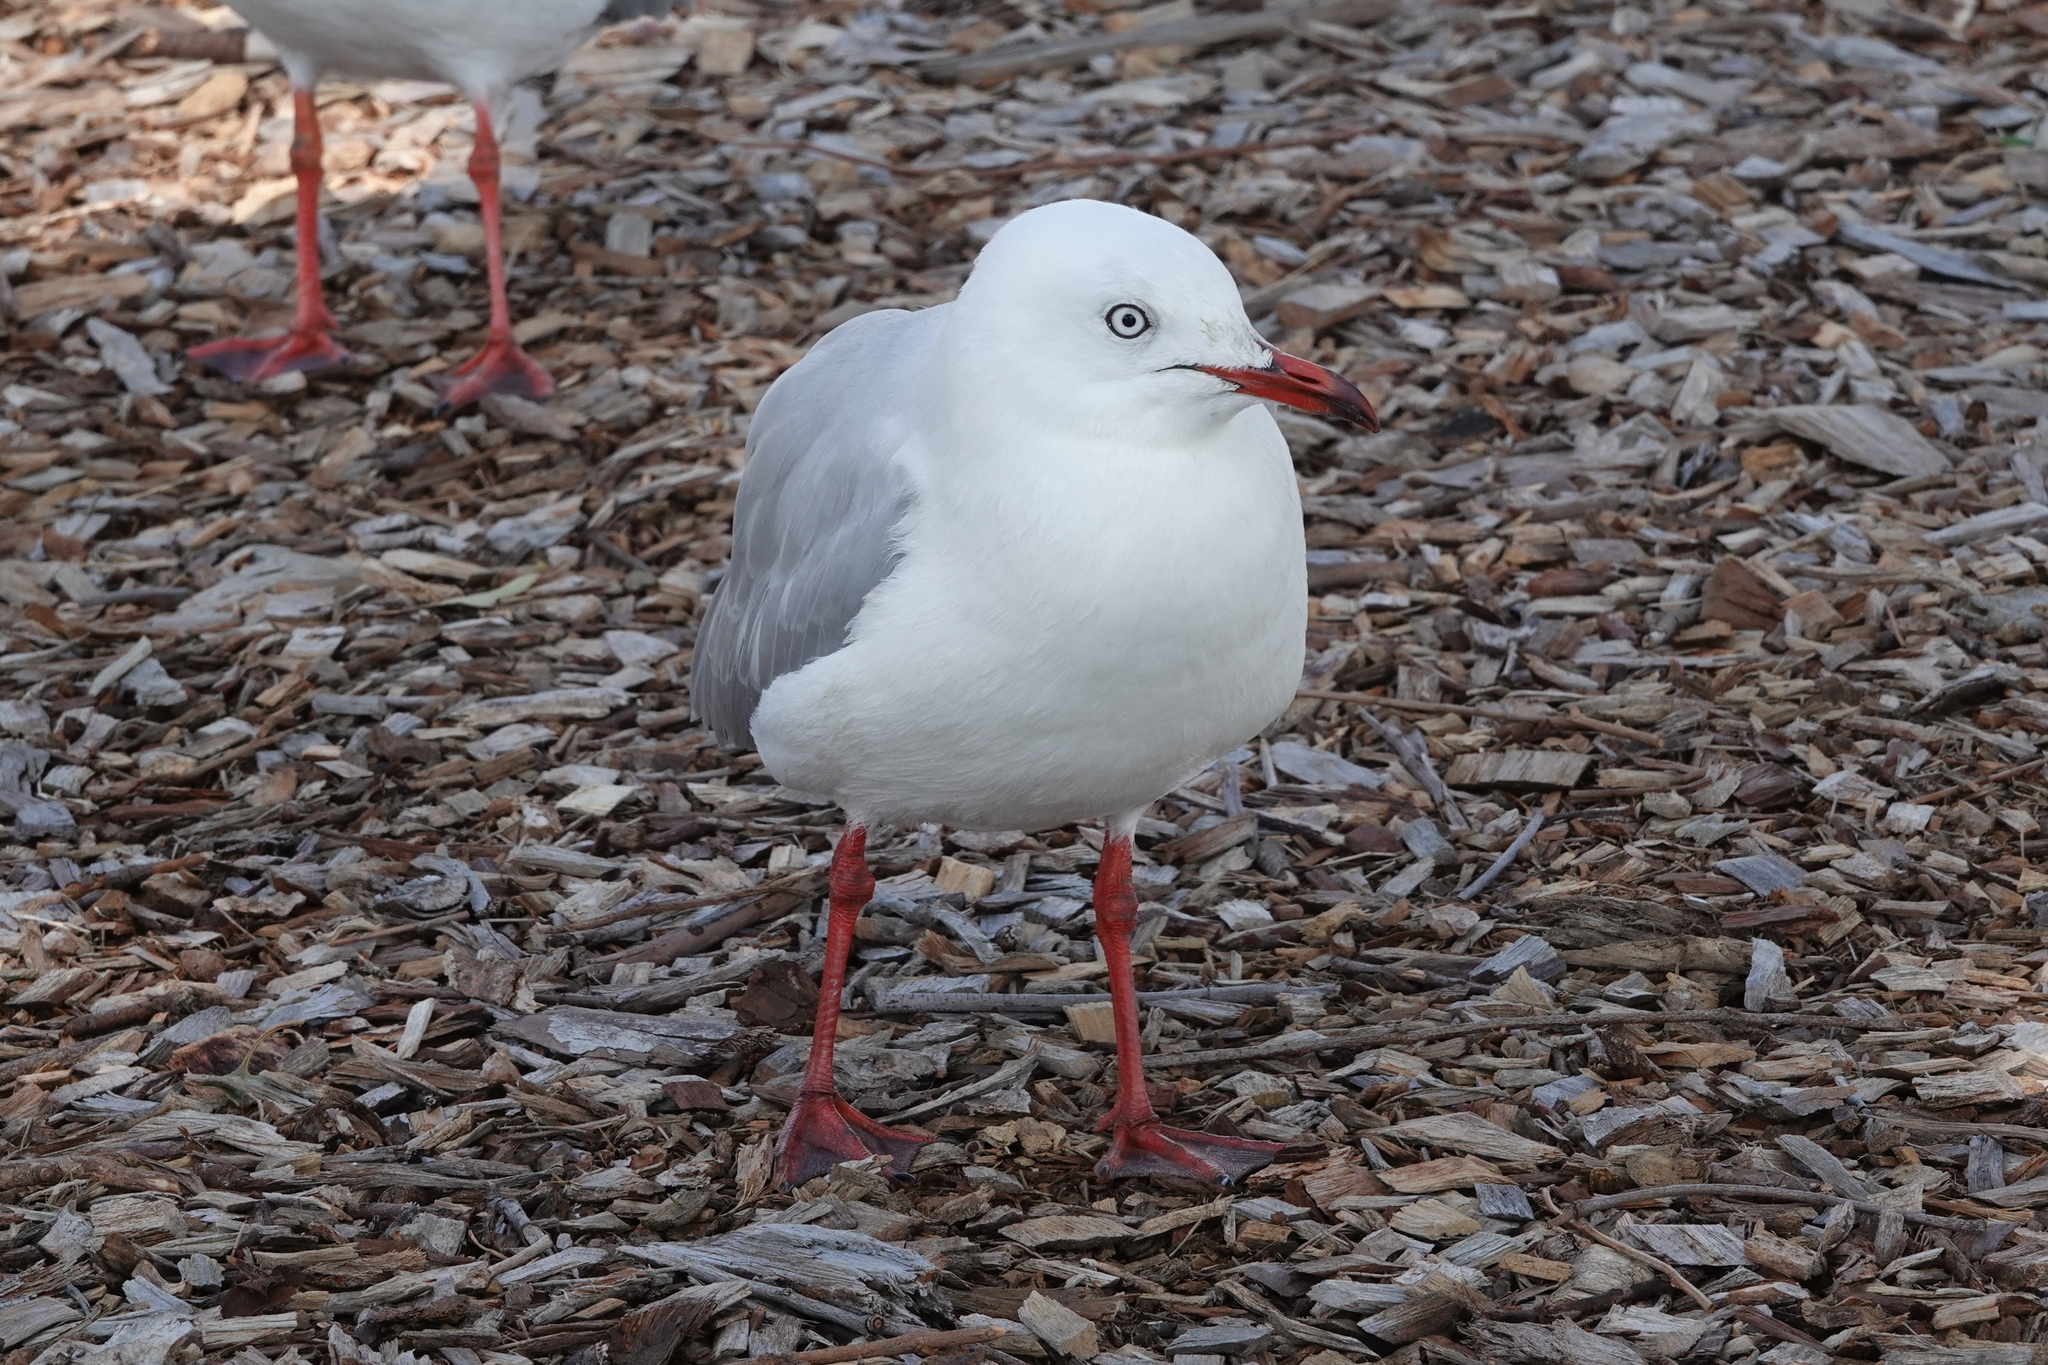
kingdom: Animalia
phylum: Chordata
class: Aves
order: Charadriiformes
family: Laridae
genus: Chroicocephalus
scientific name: Chroicocephalus novaehollandiae
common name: Silver gull
